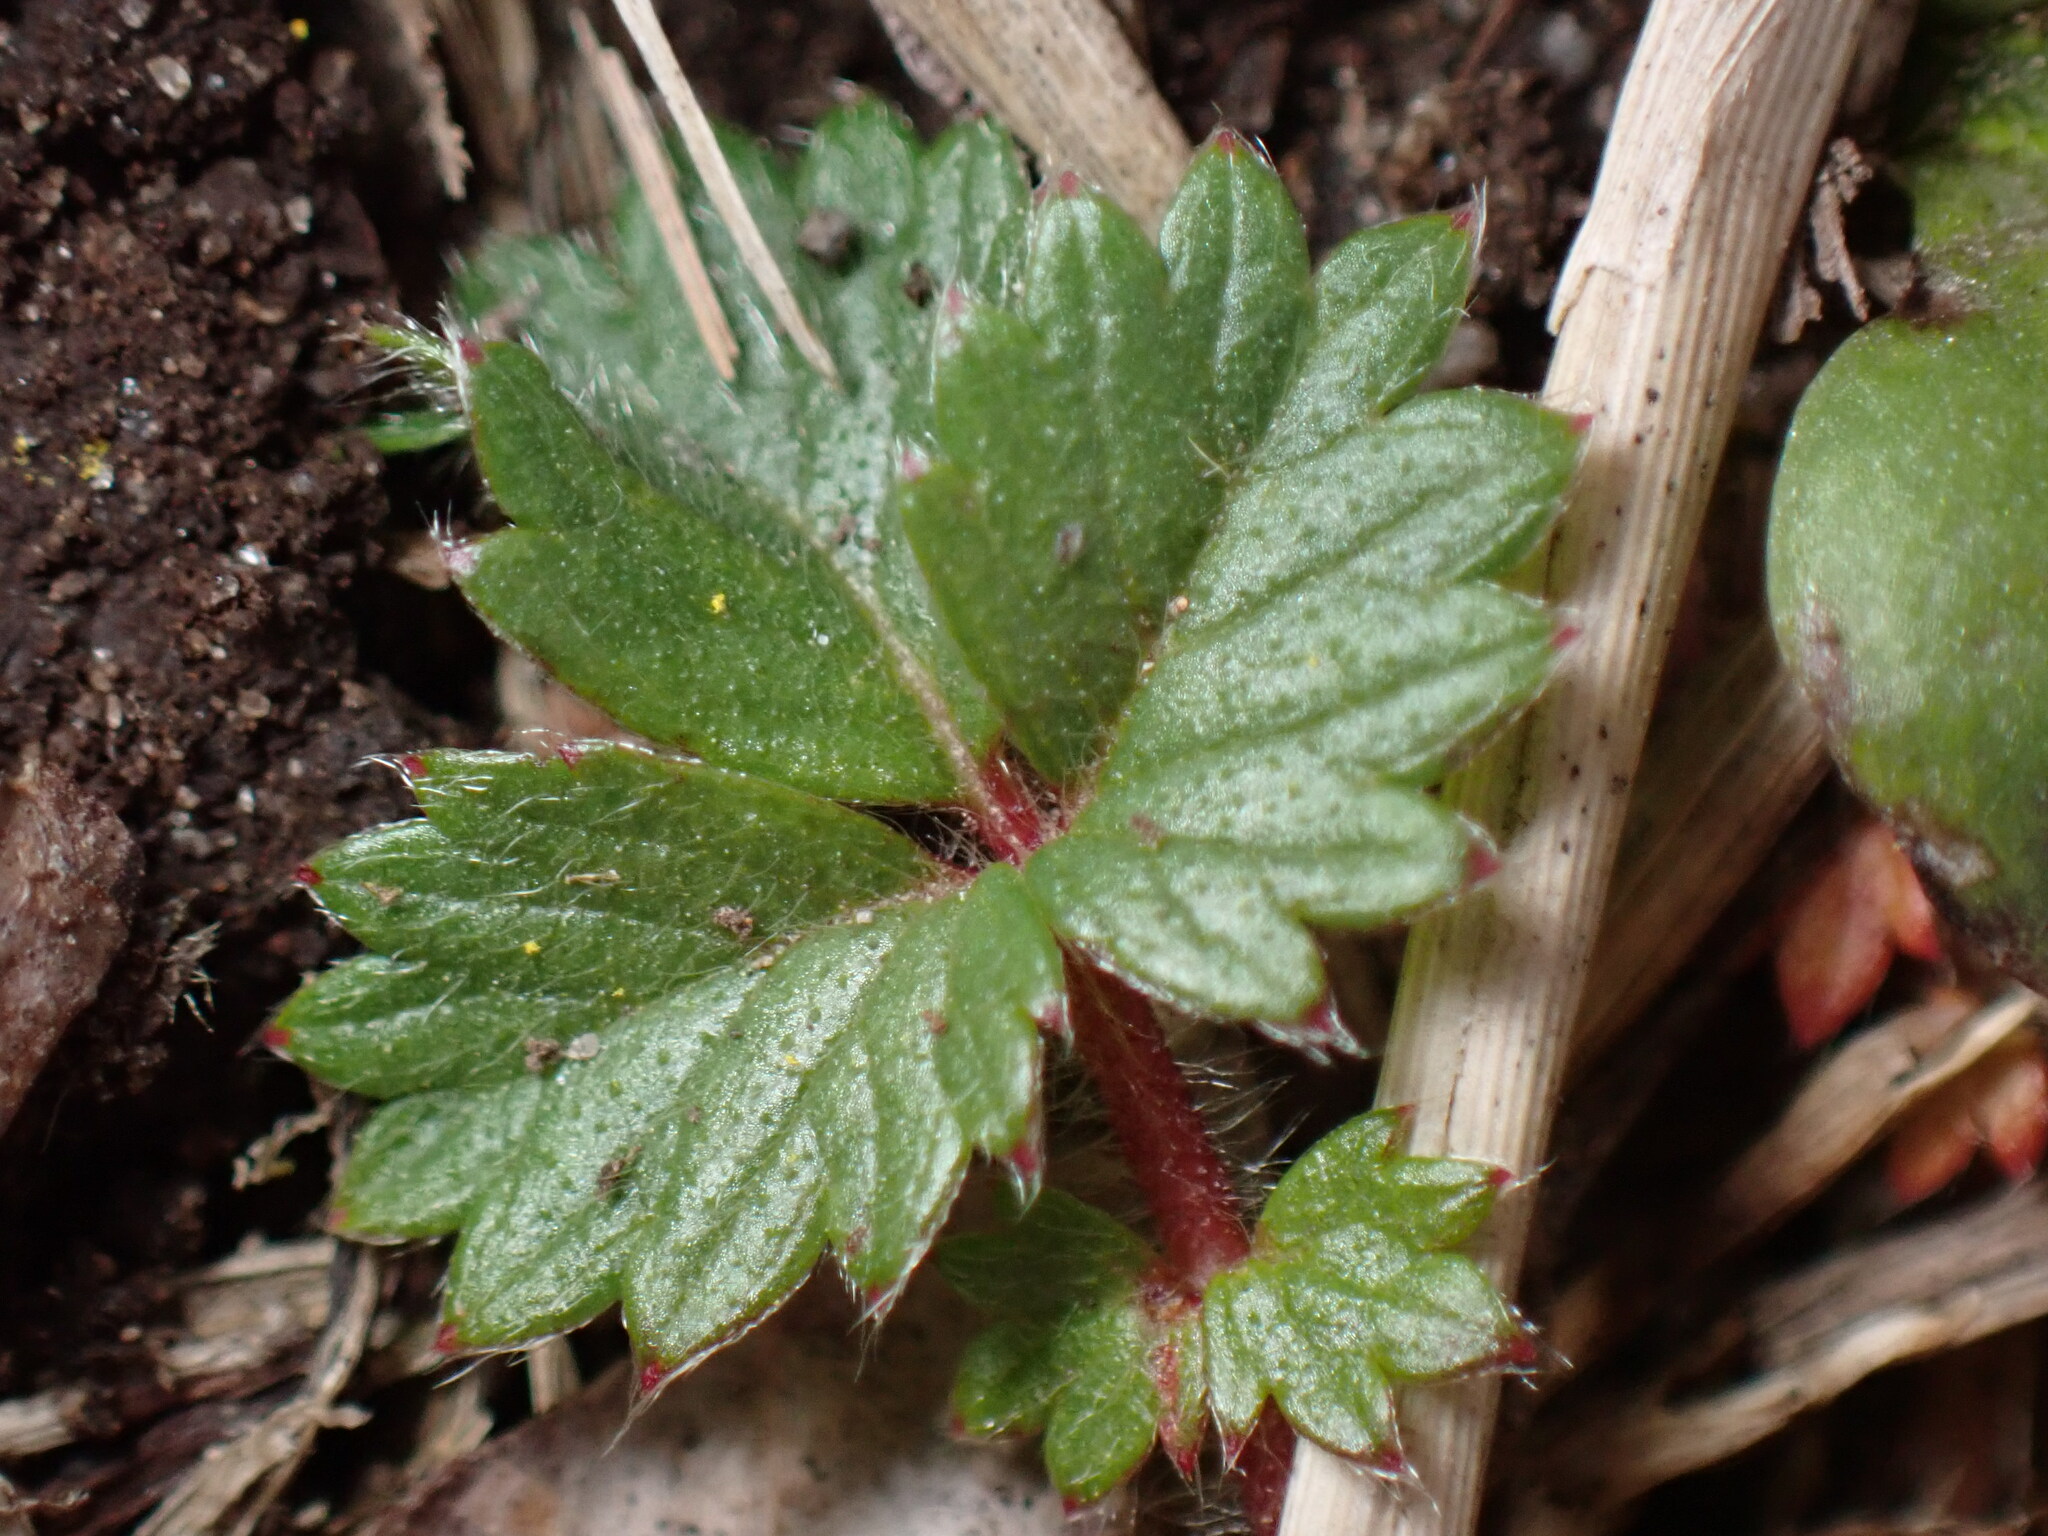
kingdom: Plantae
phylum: Tracheophyta
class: Magnoliopsida
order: Rosales
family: Rosaceae
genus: Potentilla
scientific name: Potentilla stolonifera
